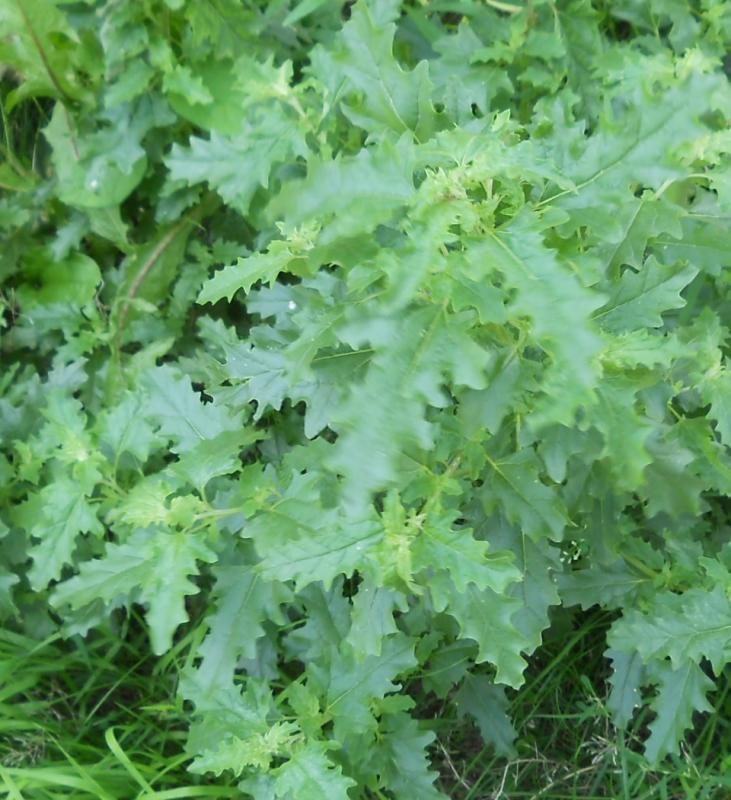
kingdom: Plantae
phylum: Tracheophyta
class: Magnoliopsida
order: Caryophyllales
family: Amaranthaceae
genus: Atriplex
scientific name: Atriplex tatarica
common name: Tatarian orache
